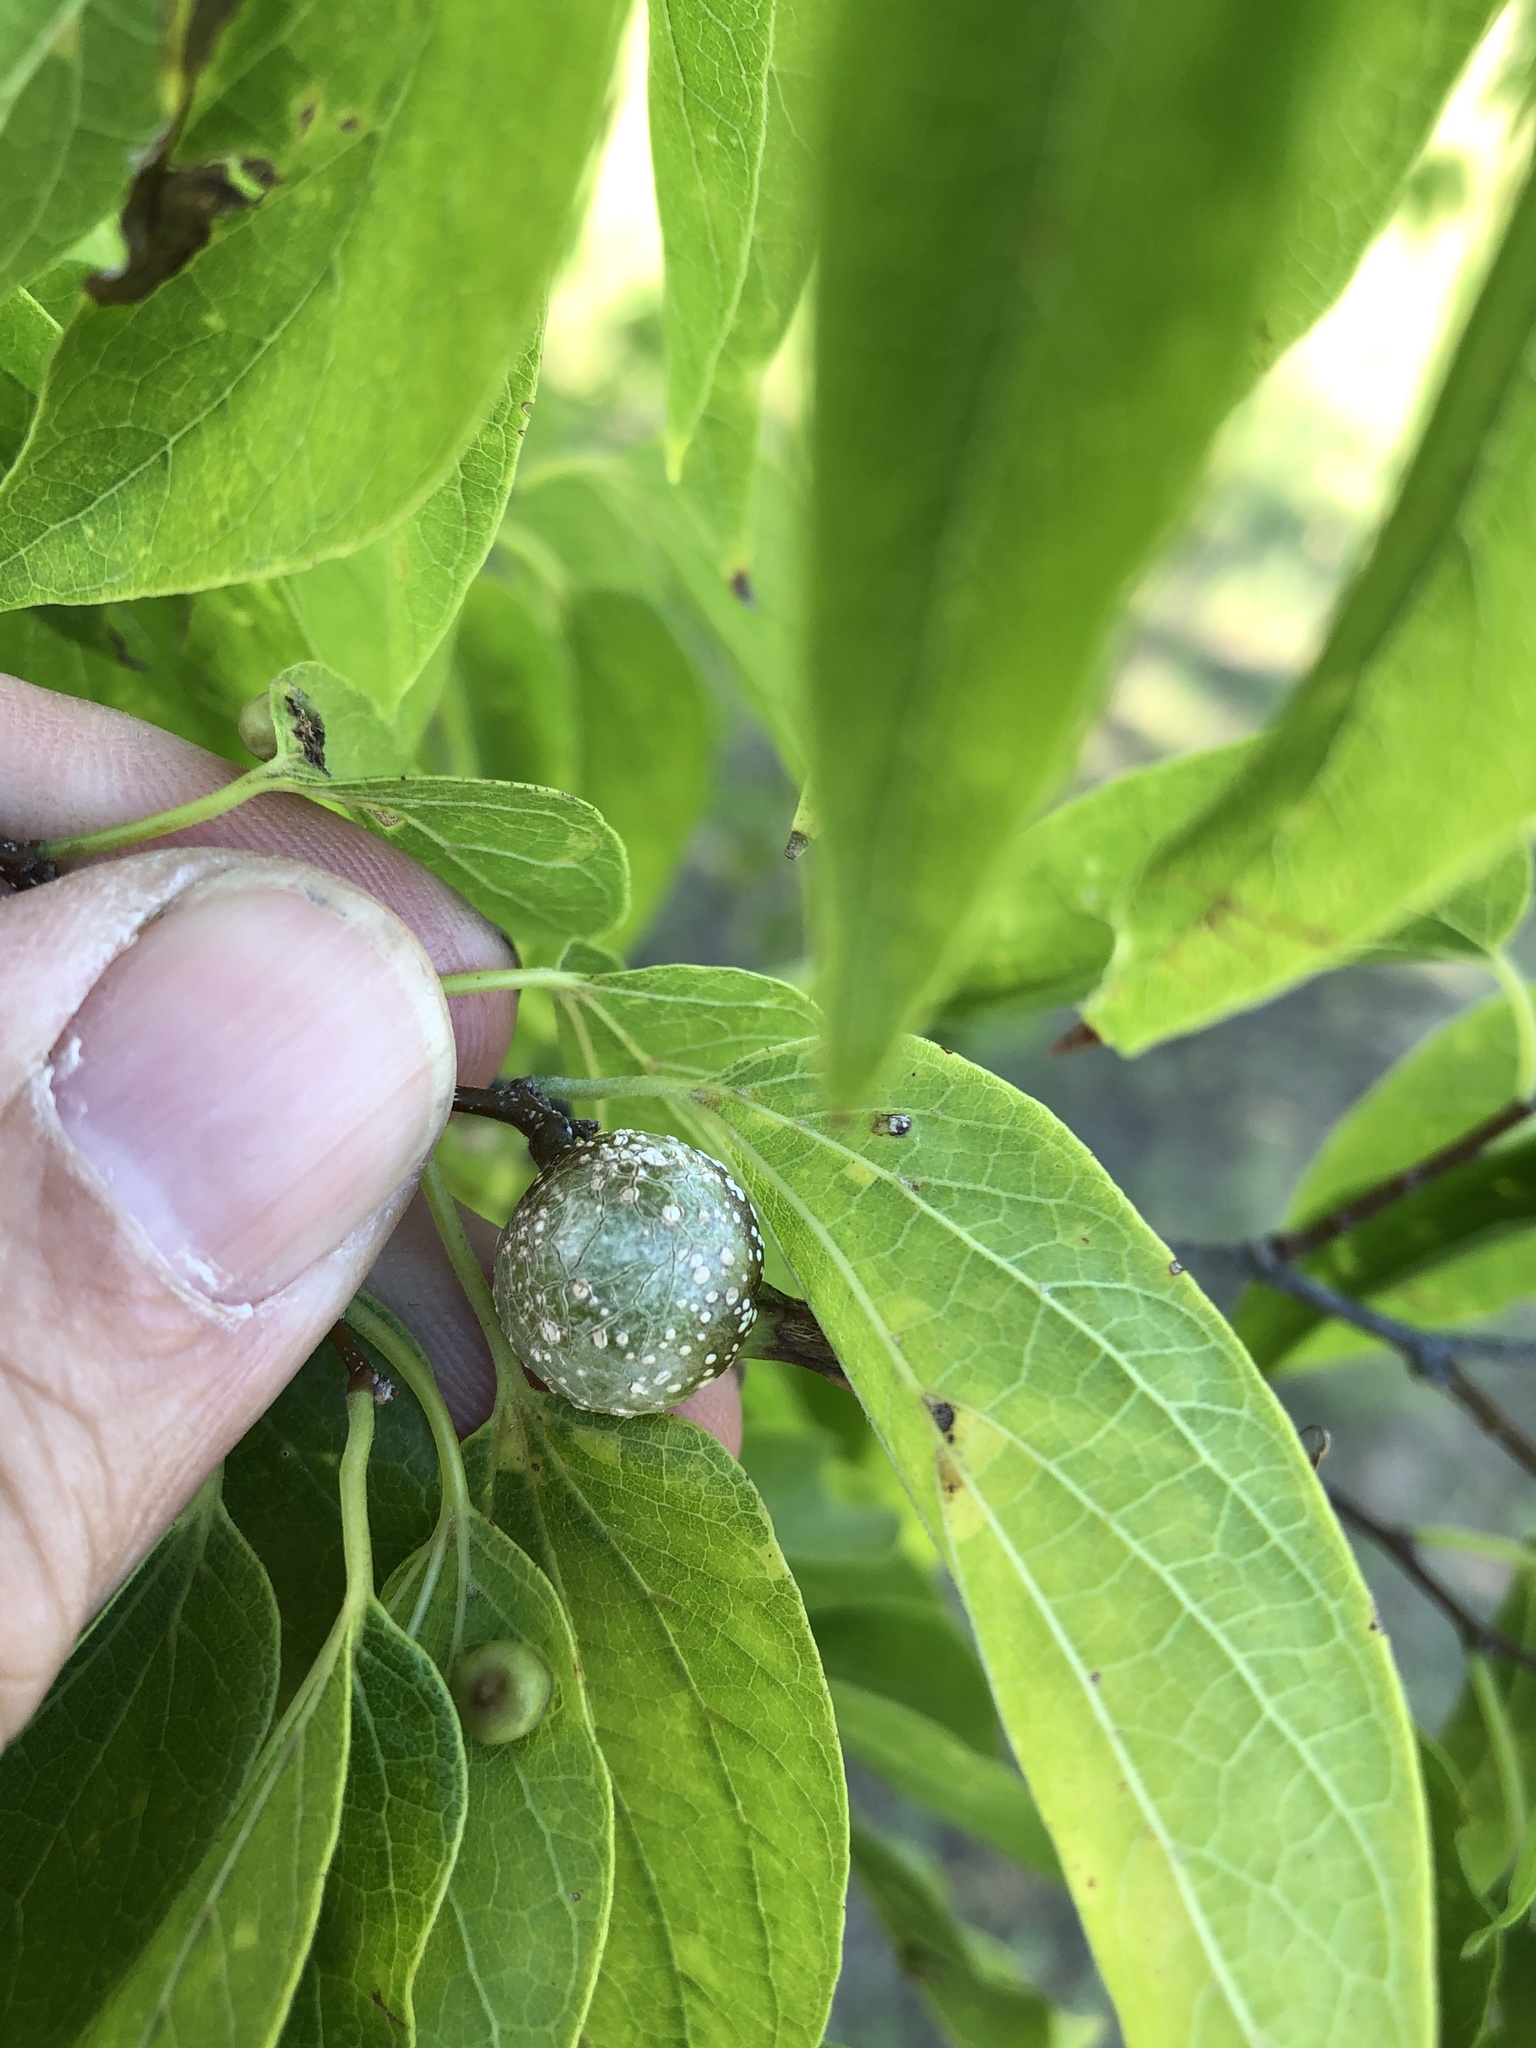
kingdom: Animalia
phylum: Arthropoda
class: Insecta
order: Hemiptera
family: Aphalaridae
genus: Pachypsylla
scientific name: Pachypsylla venusta
